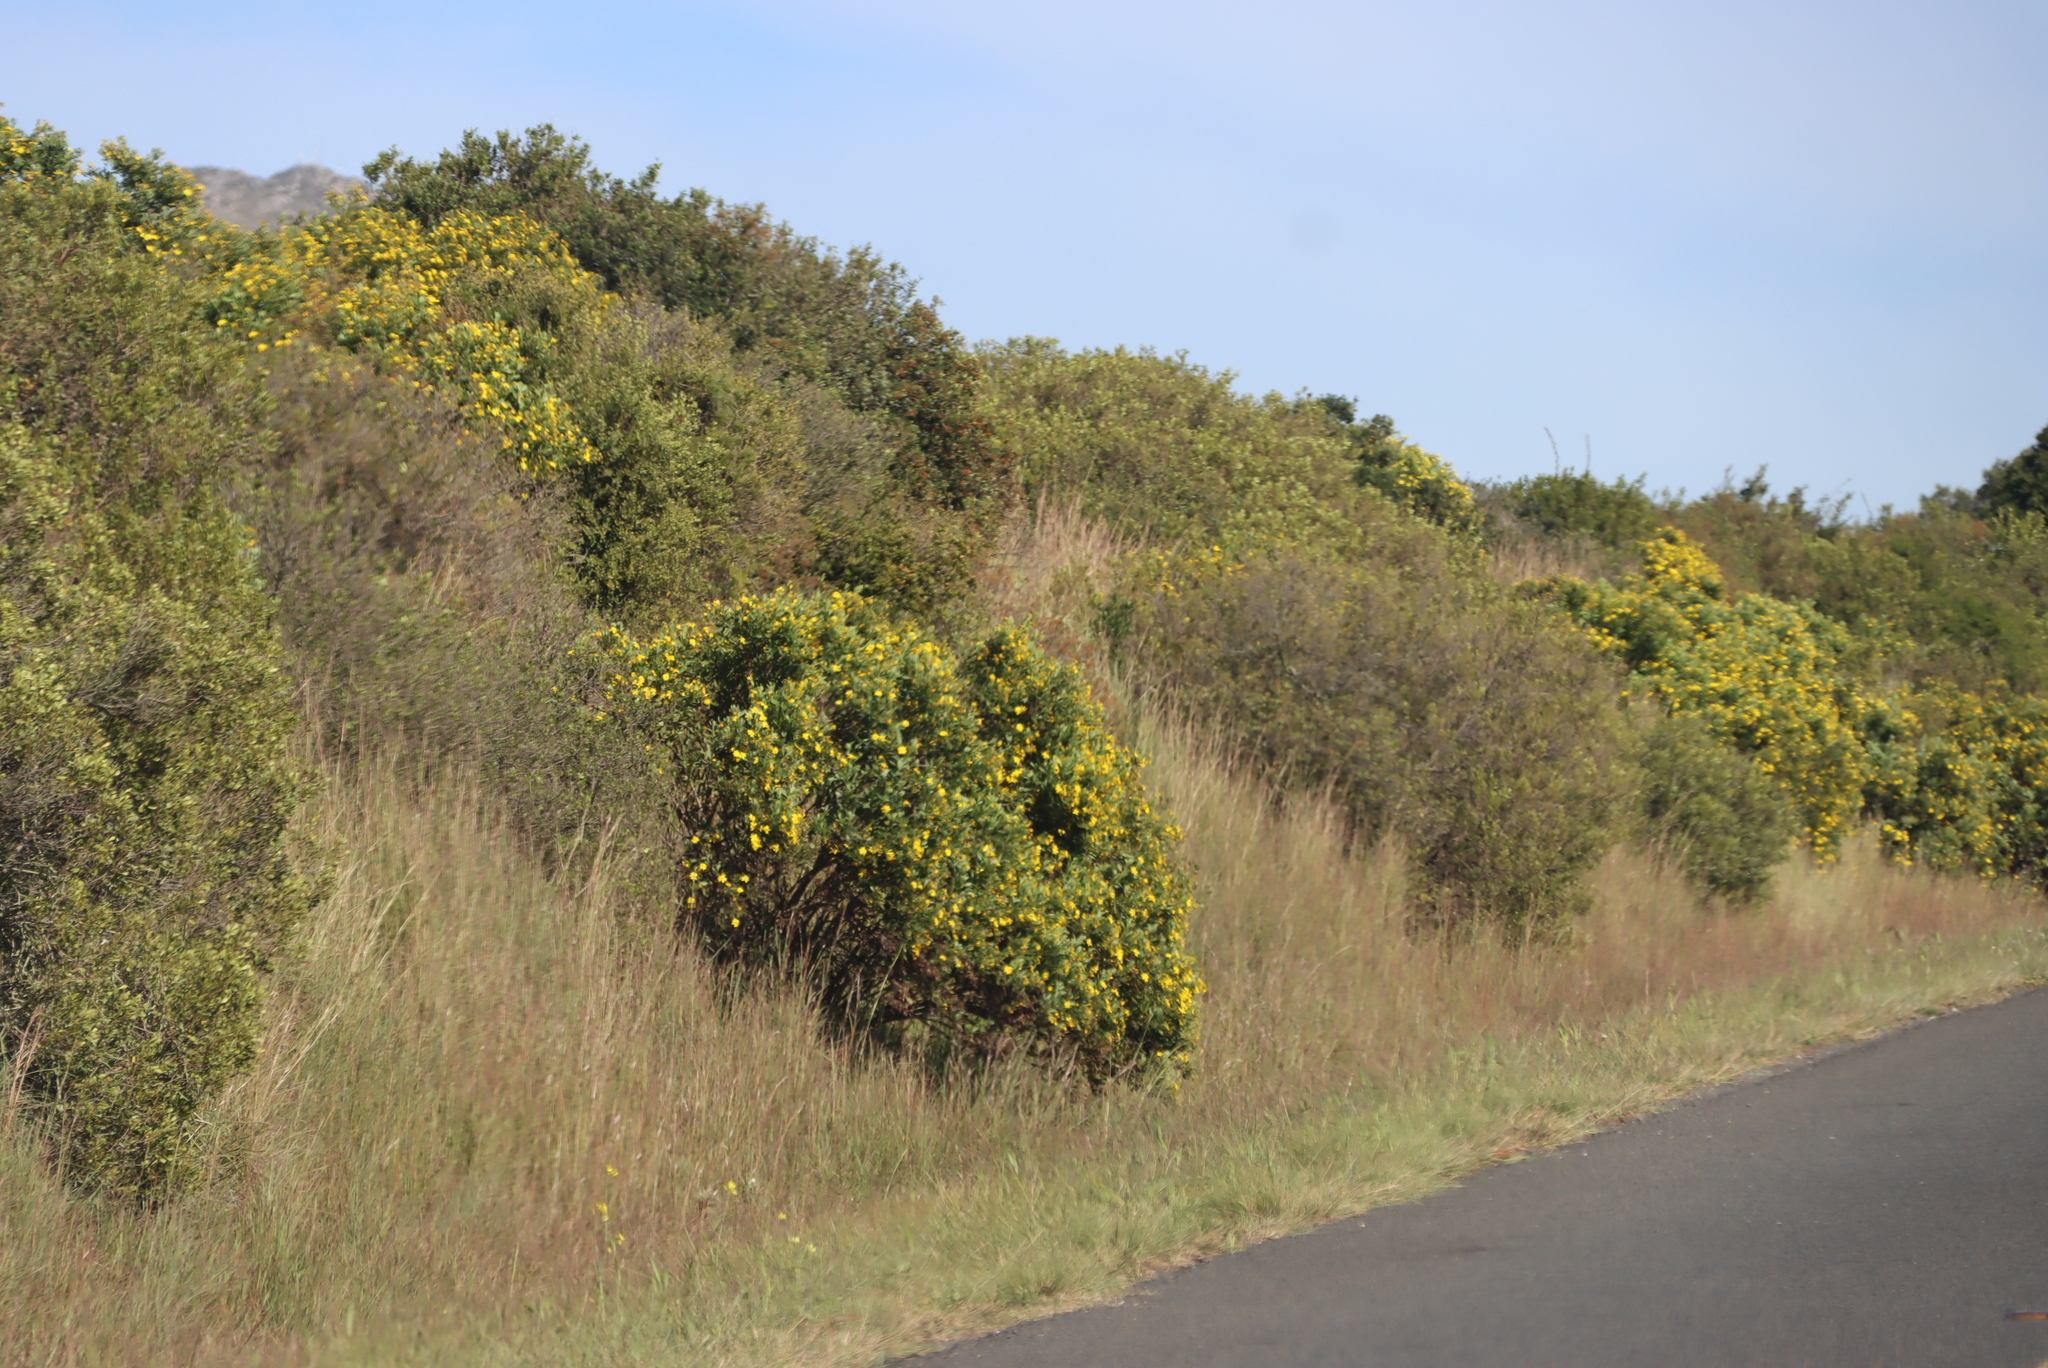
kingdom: Plantae
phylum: Tracheophyta
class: Magnoliopsida
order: Asterales
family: Asteraceae
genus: Osteospermum
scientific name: Osteospermum moniliferum
